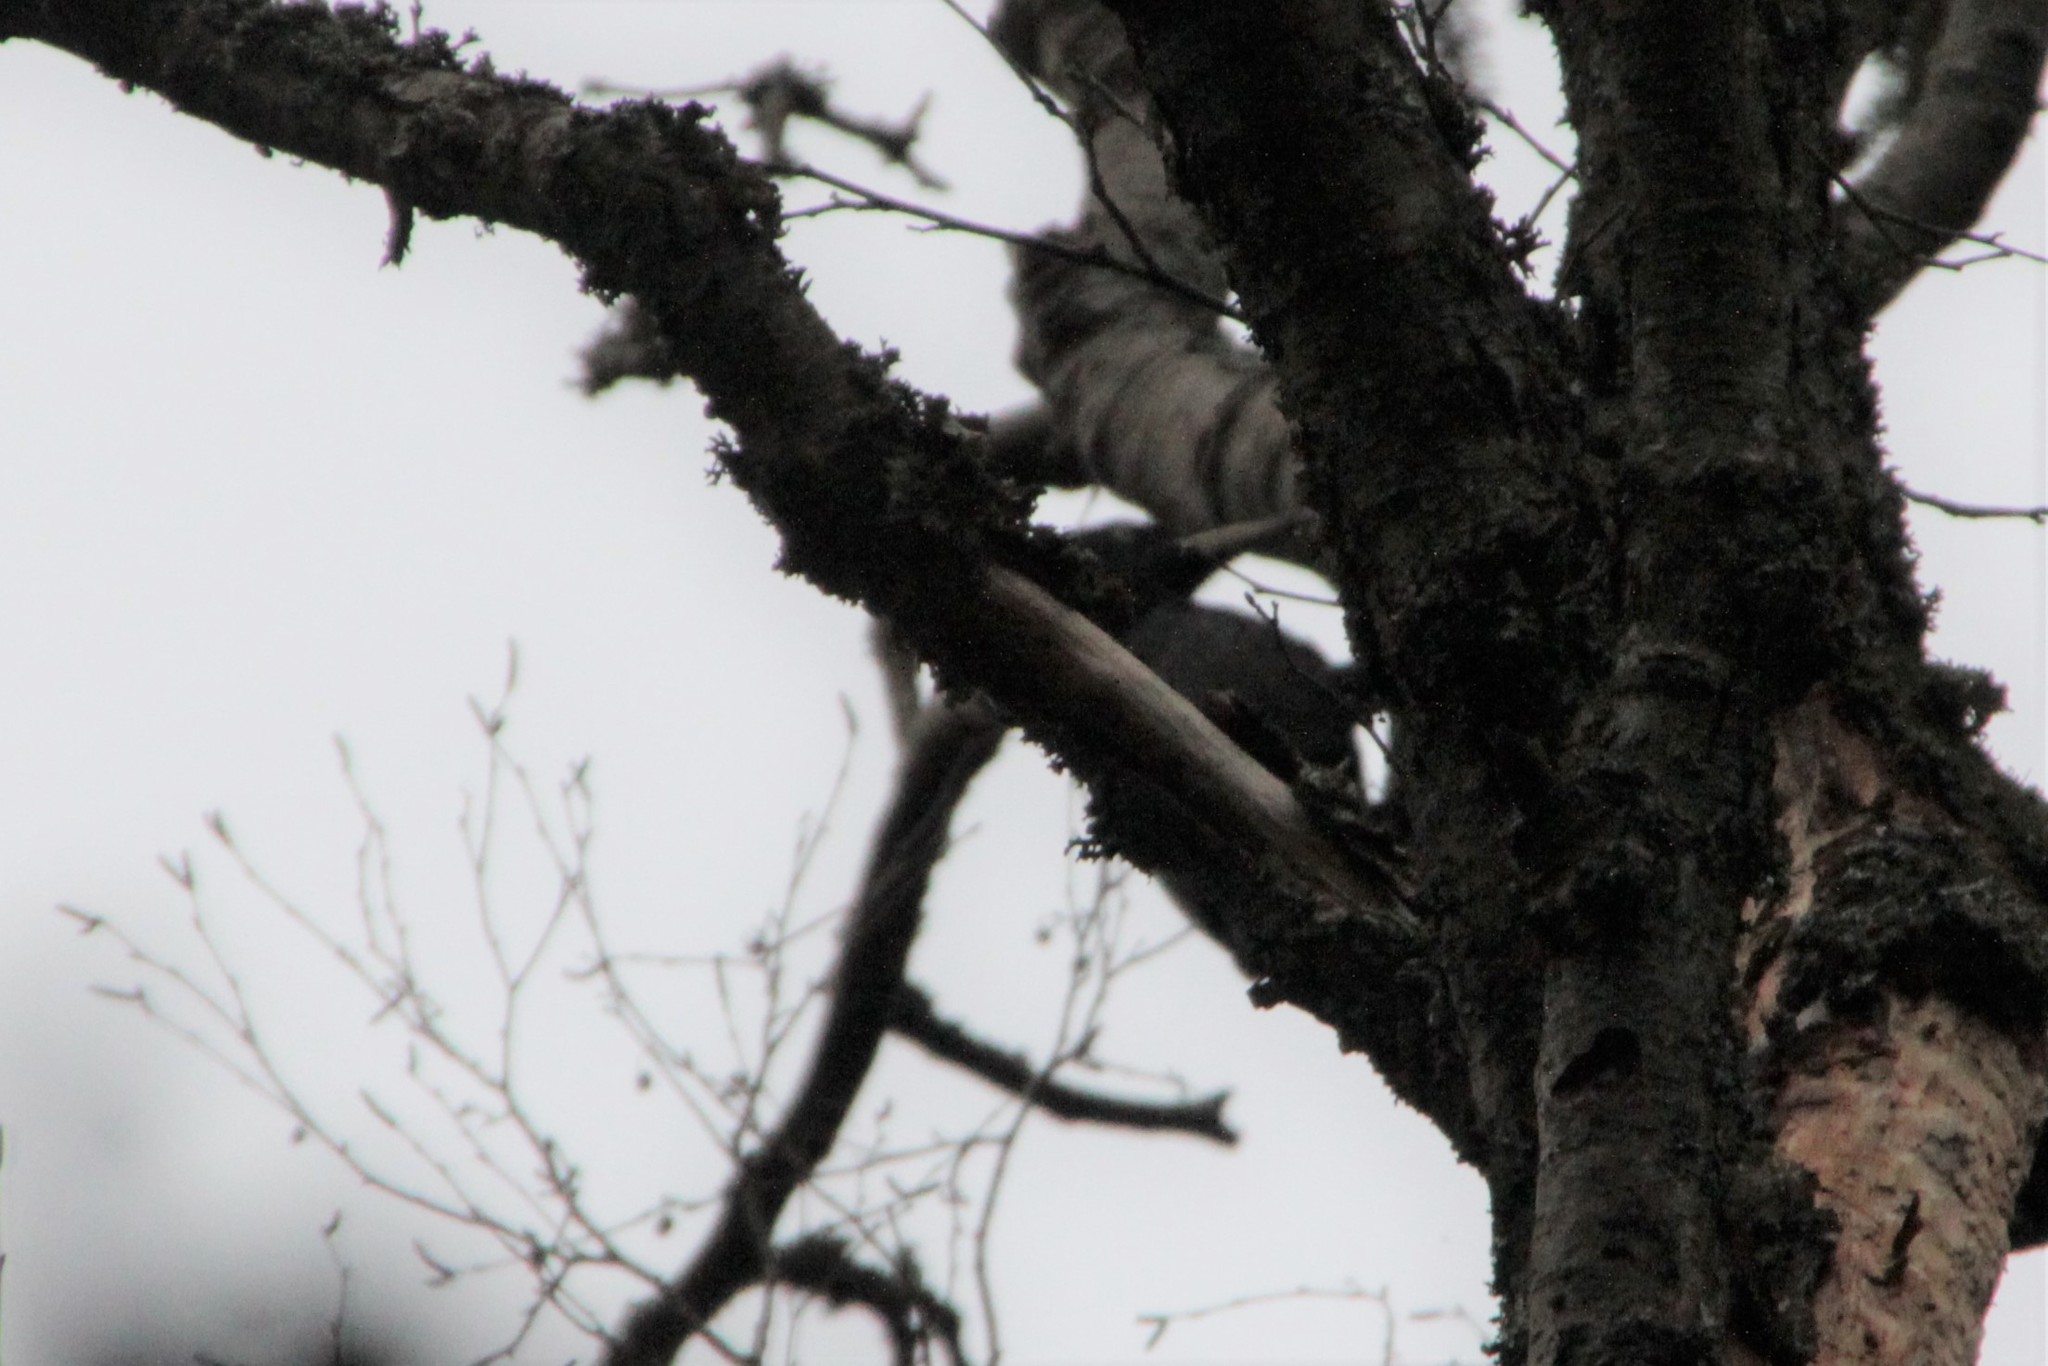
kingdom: Animalia
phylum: Chordata
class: Aves
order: Piciformes
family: Picidae
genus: Dryocopus
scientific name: Dryocopus martius
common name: Black woodpecker
